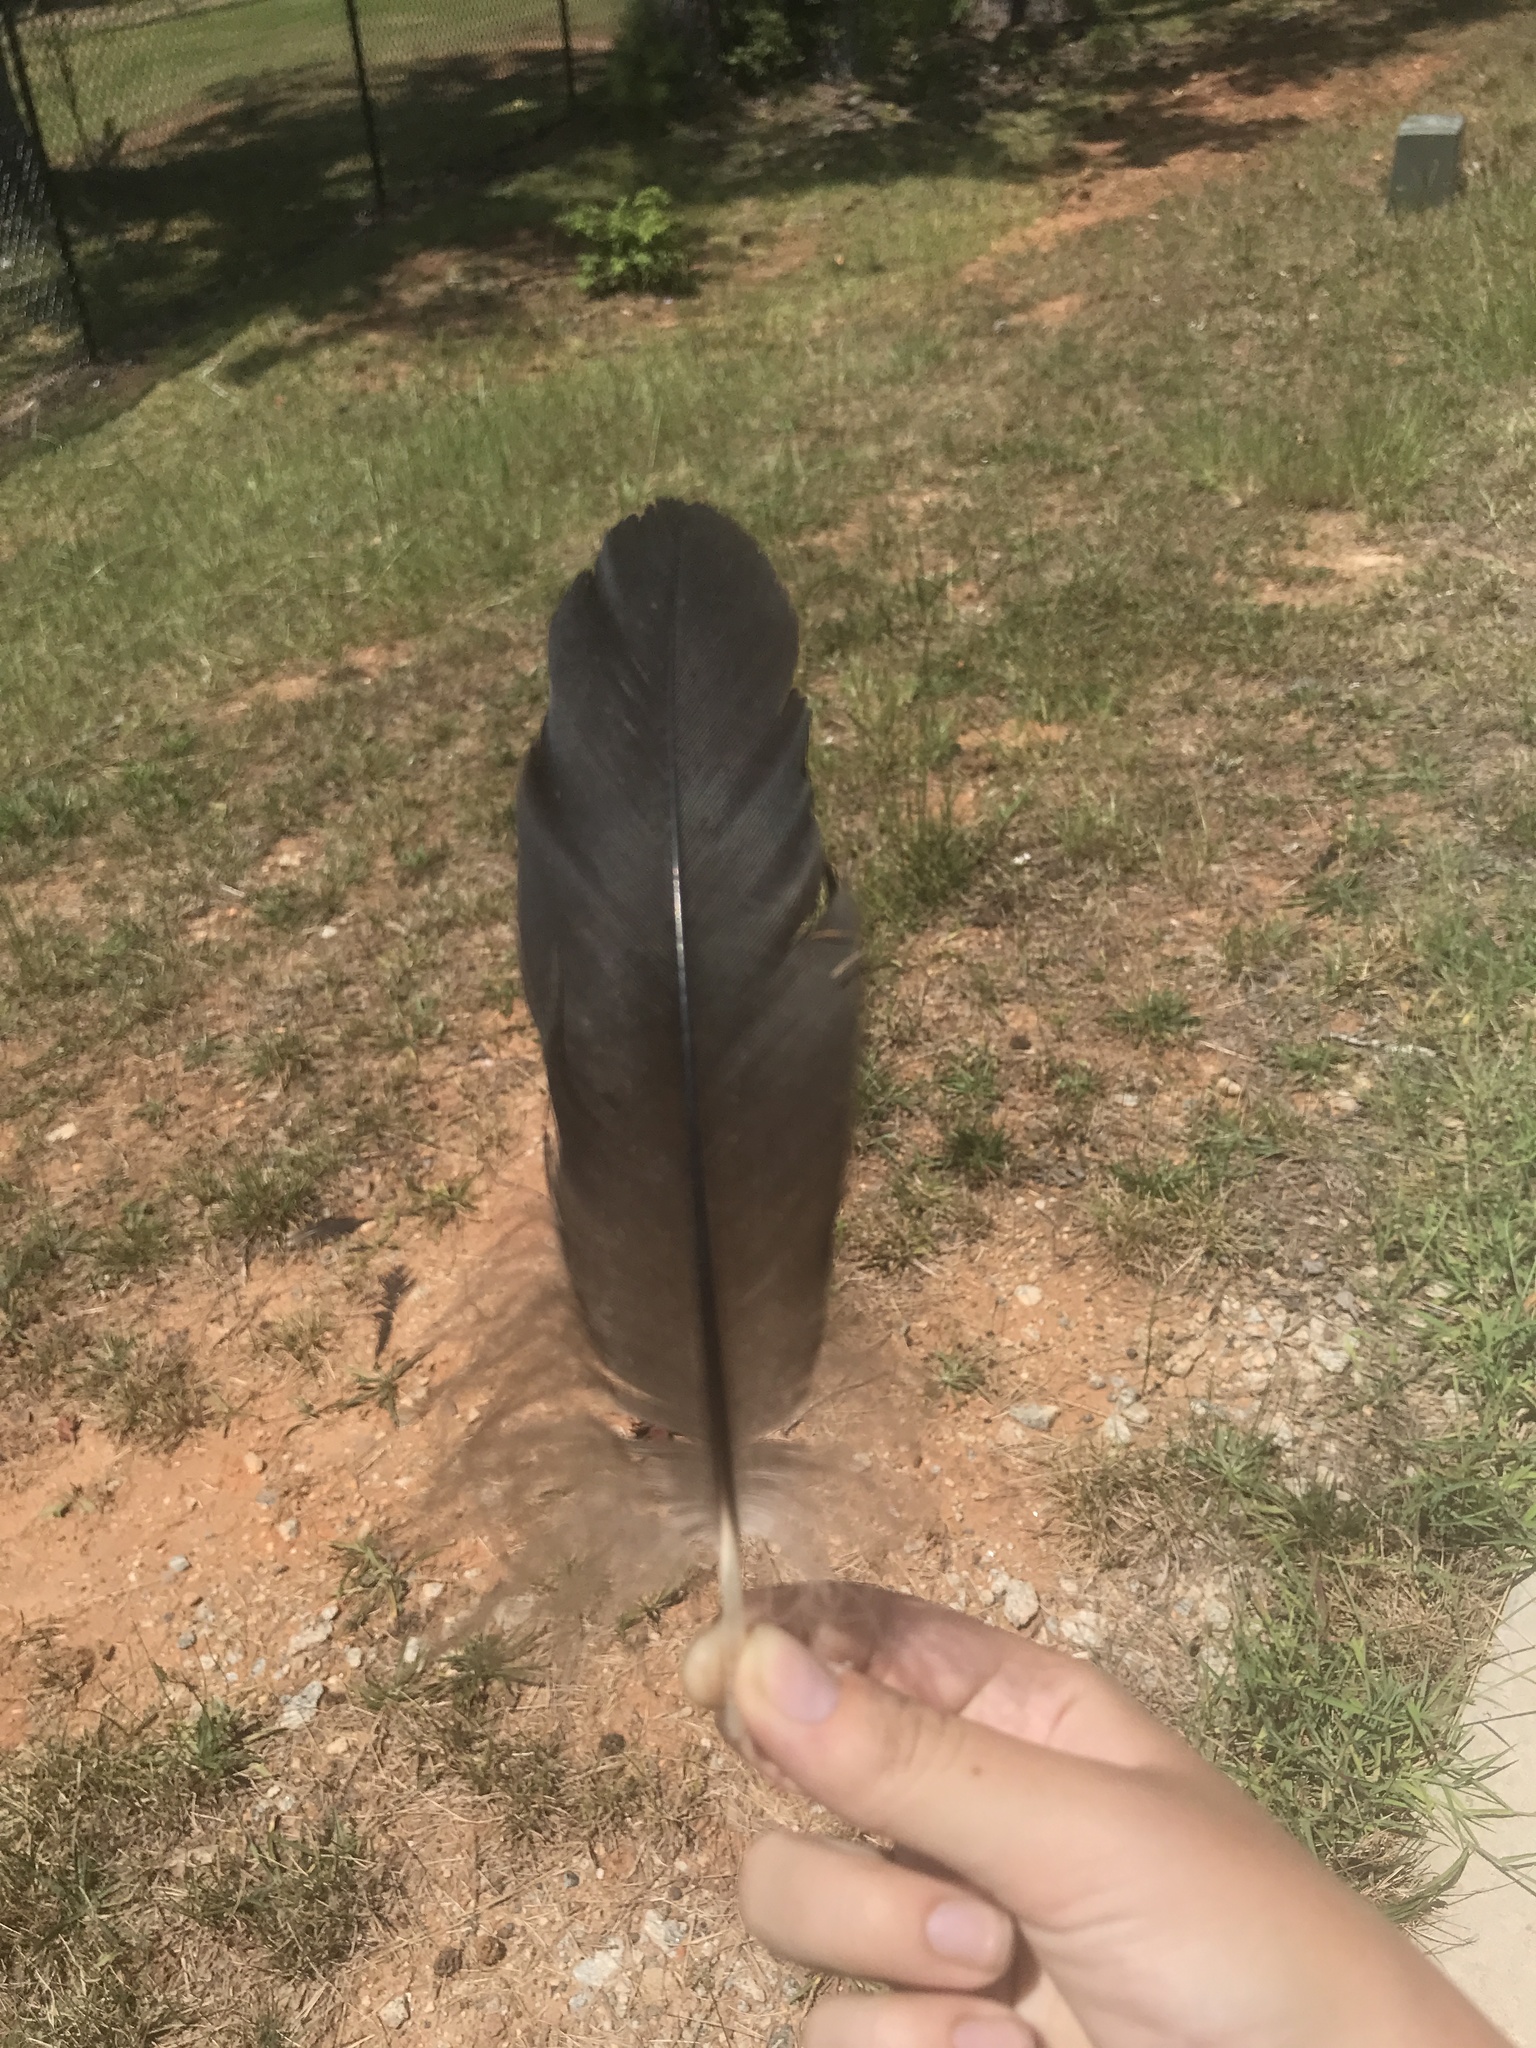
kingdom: Animalia
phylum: Chordata
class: Aves
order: Accipitriformes
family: Cathartidae
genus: Coragyps
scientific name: Coragyps atratus
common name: Black vulture
